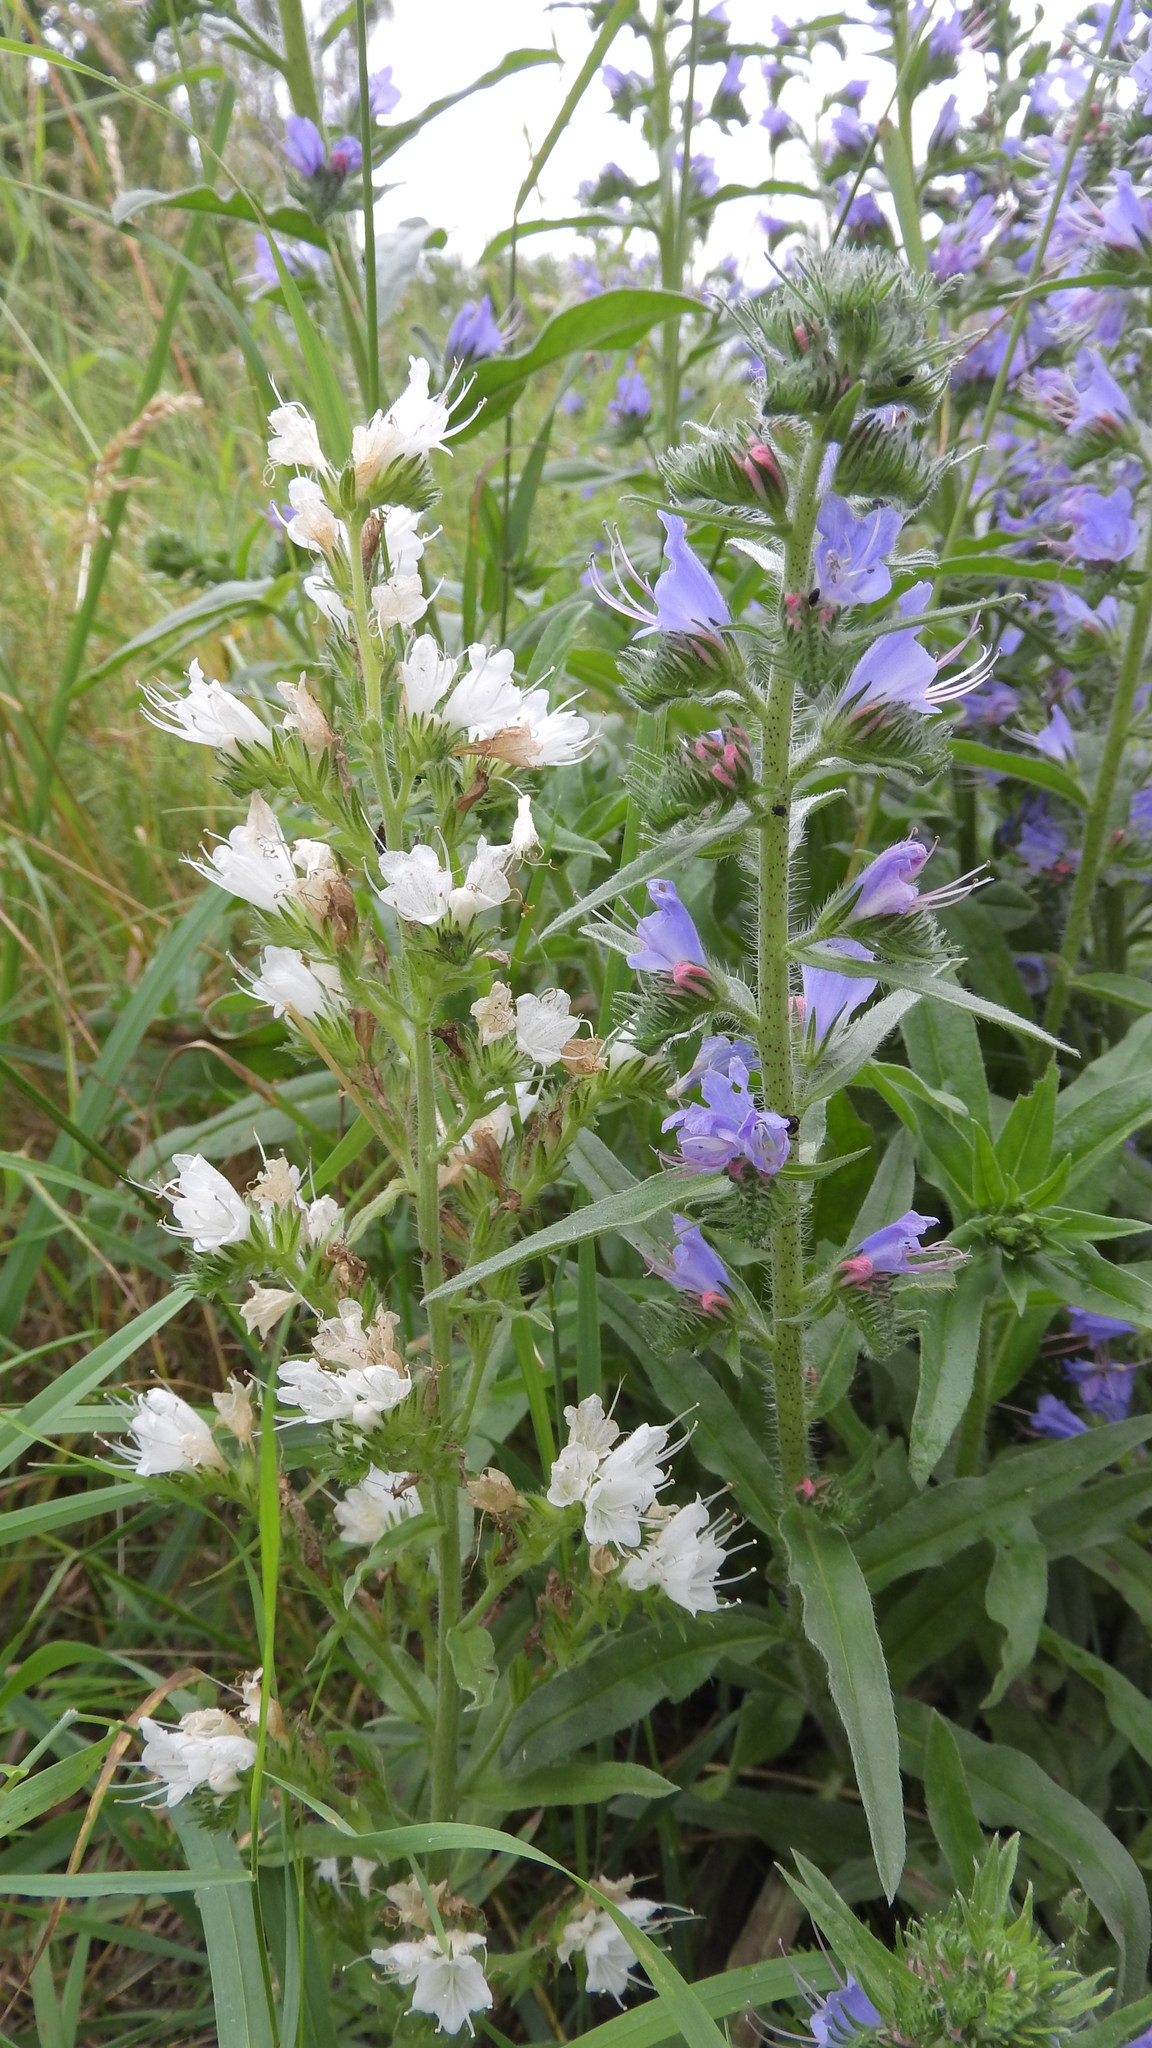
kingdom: Plantae
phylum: Tracheophyta
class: Magnoliopsida
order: Boraginales
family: Boraginaceae
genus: Echium
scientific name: Echium vulgare
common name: Common viper's bugloss
